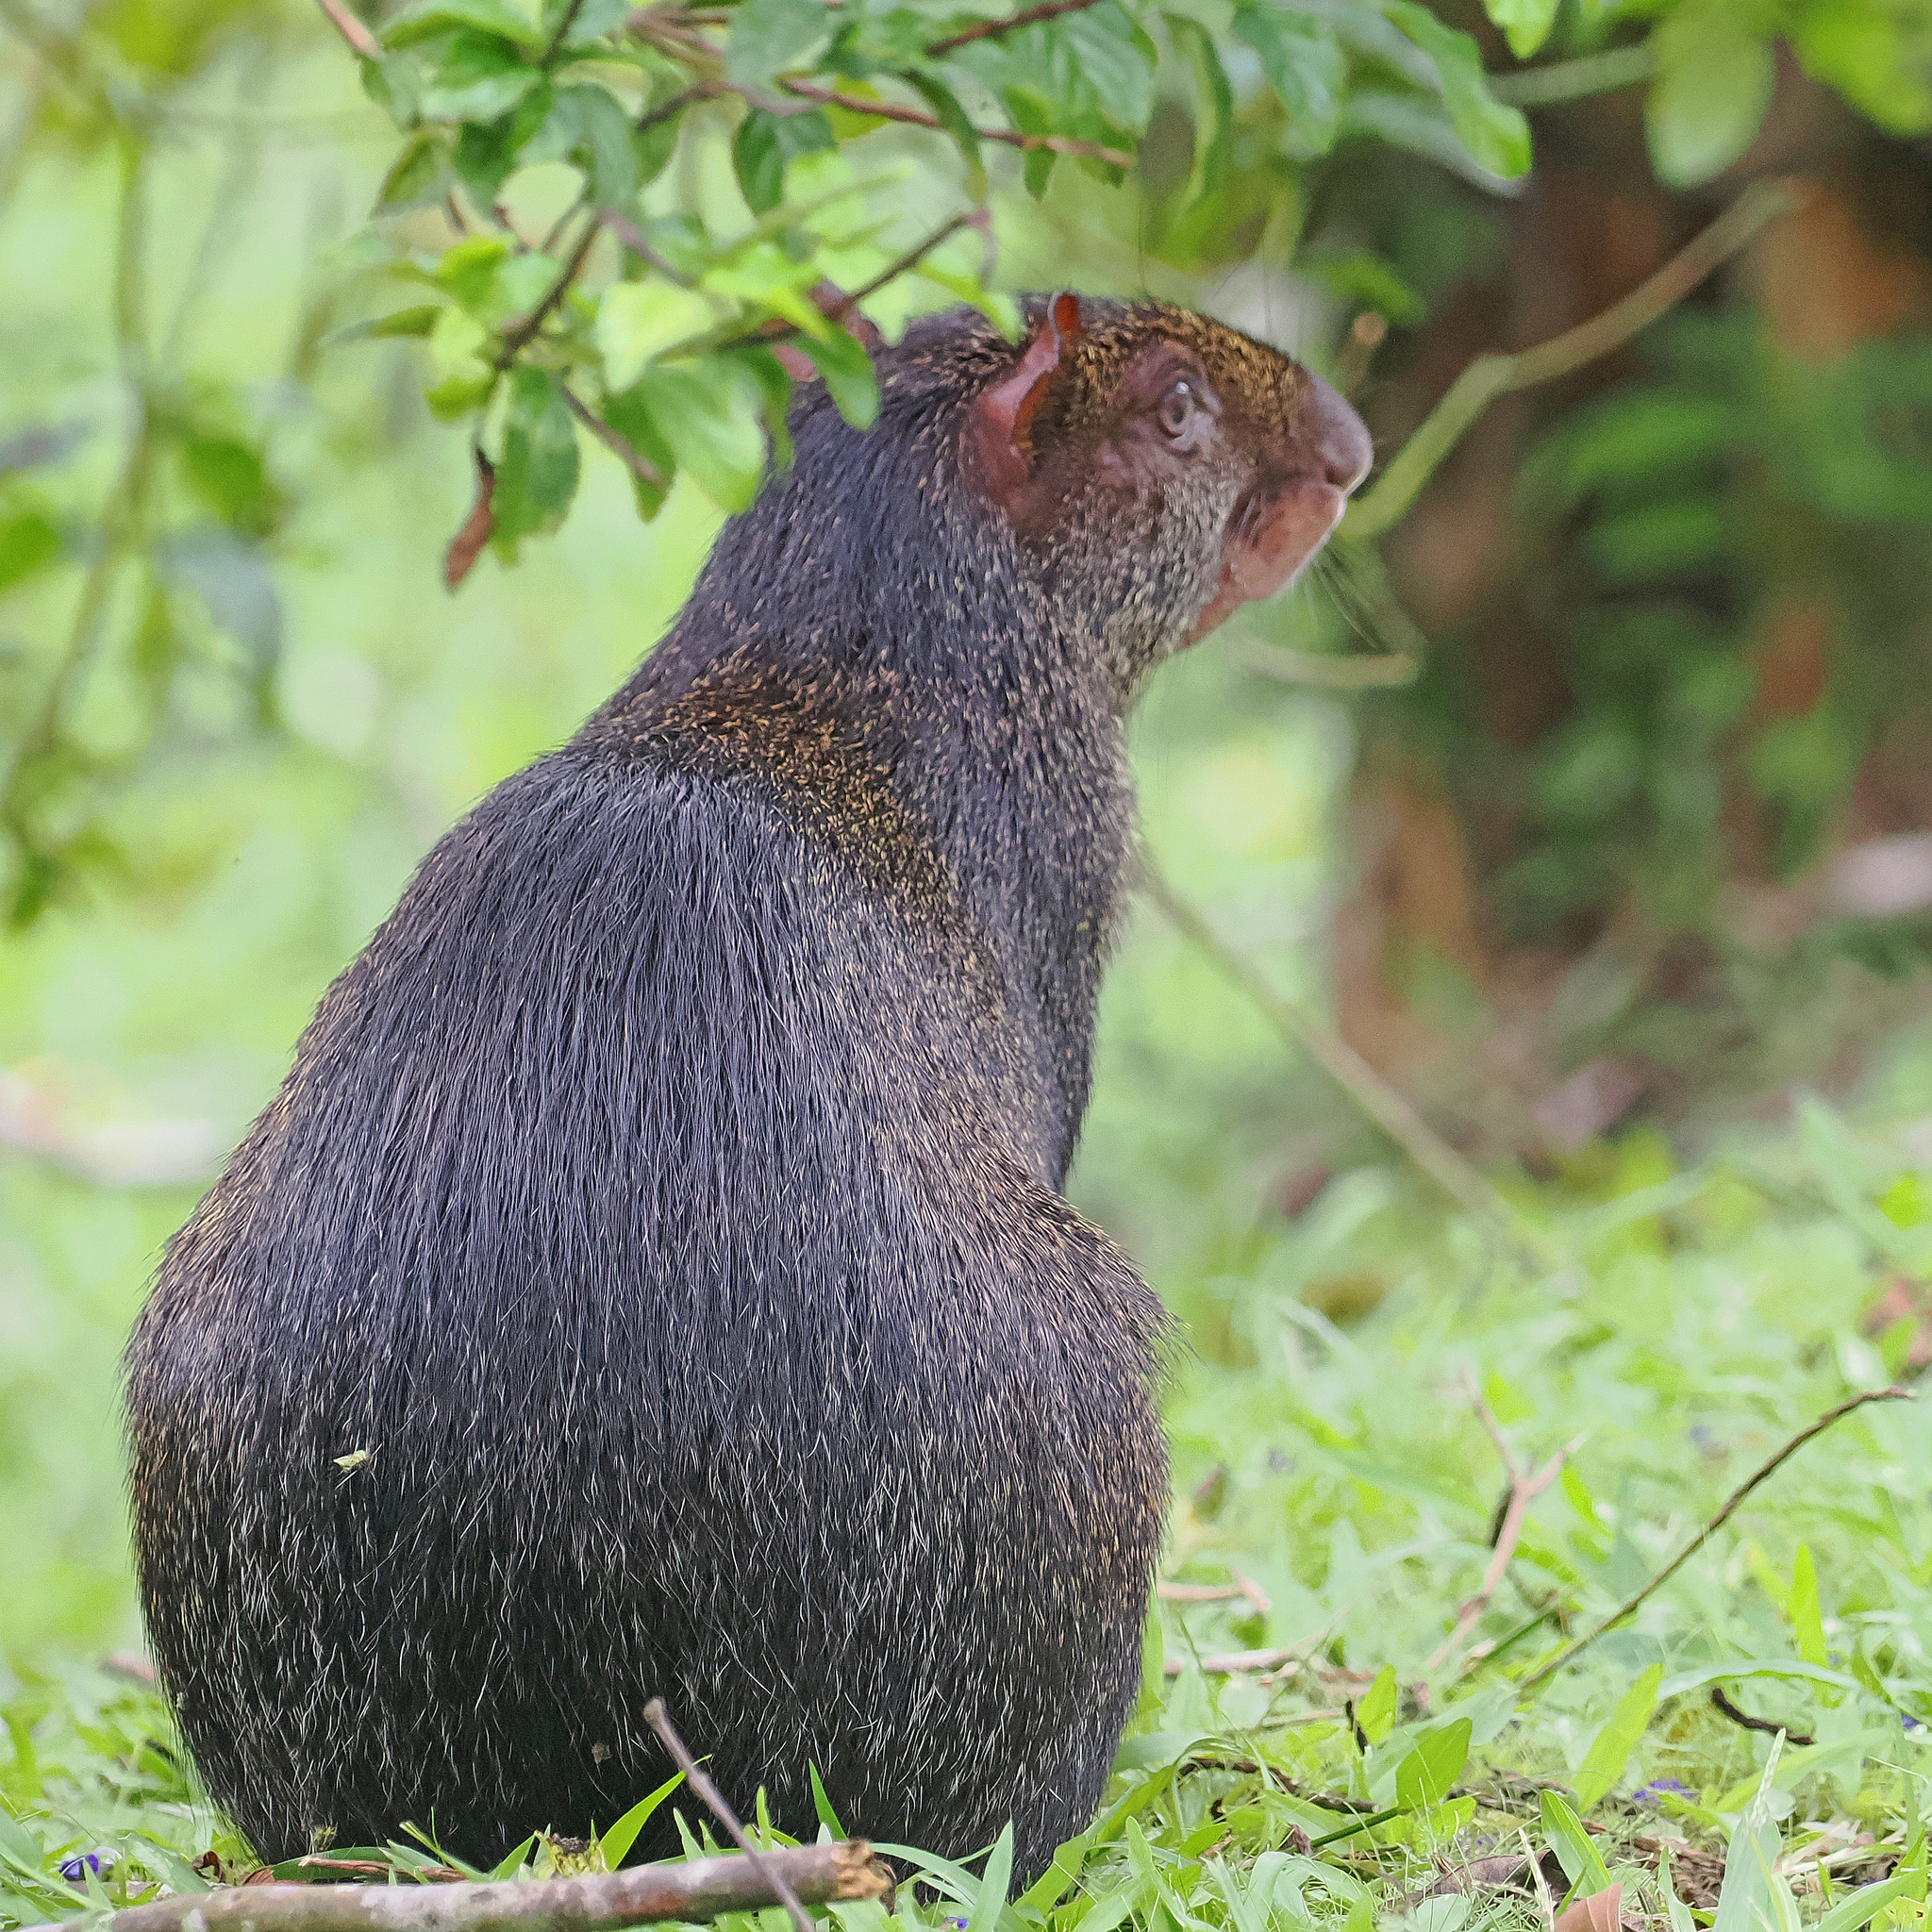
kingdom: Animalia
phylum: Chordata
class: Mammalia
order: Rodentia
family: Dasyproctidae
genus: Dasyprocta
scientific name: Dasyprocta punctata
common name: Central american agouti
